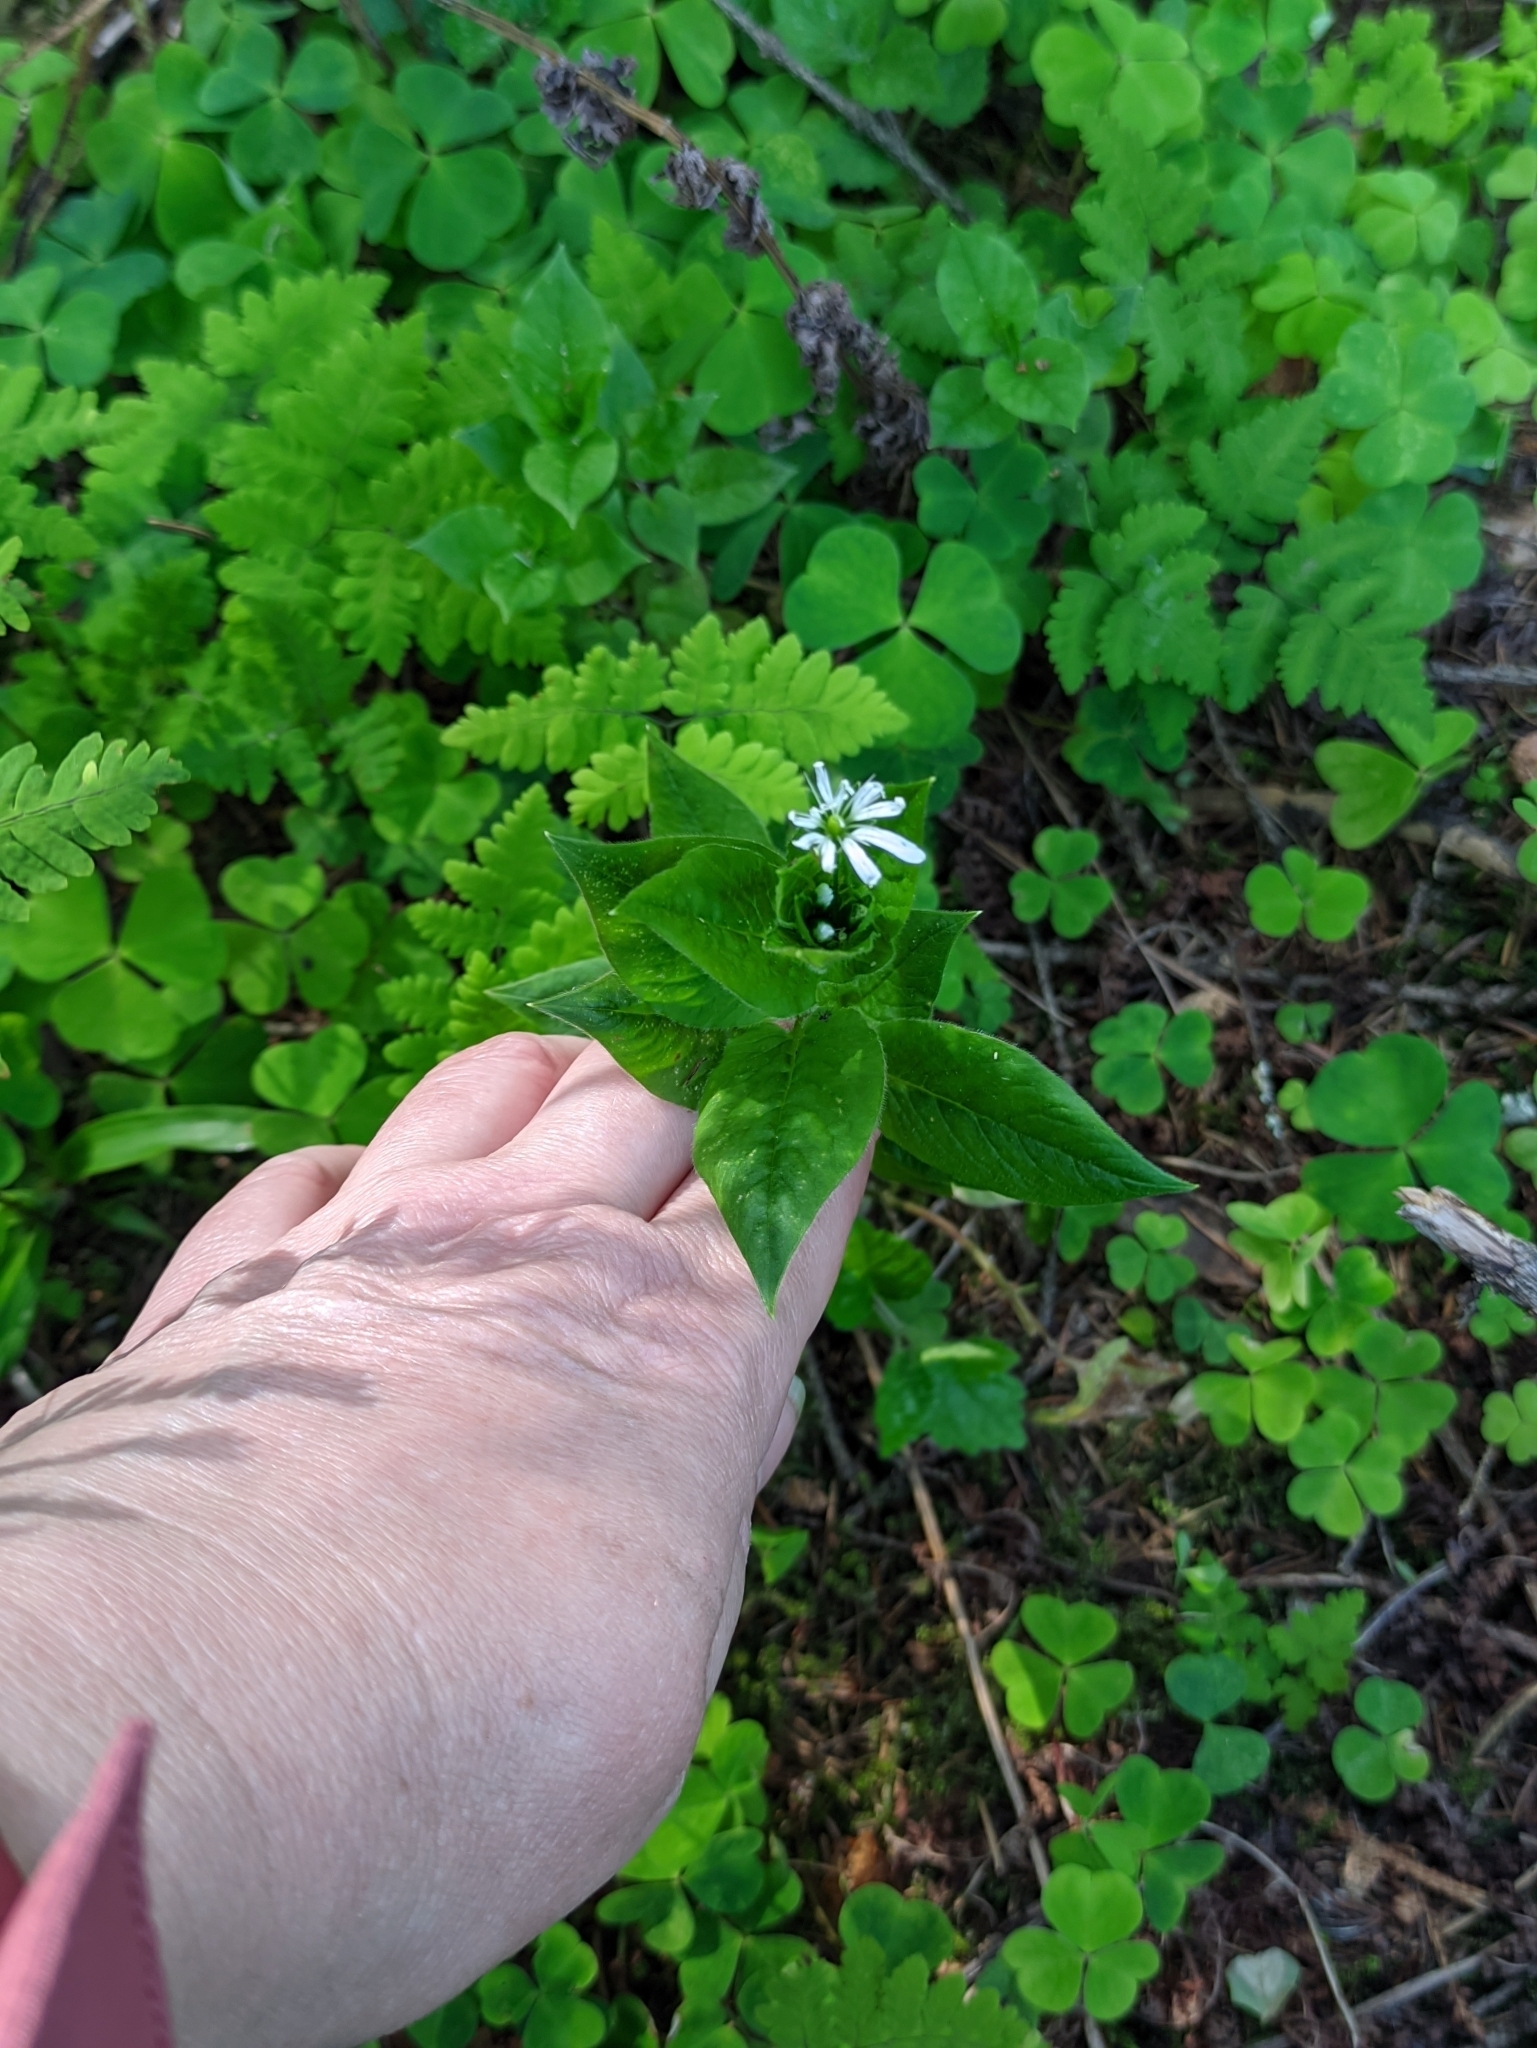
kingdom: Plantae
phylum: Tracheophyta
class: Magnoliopsida
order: Caryophyllales
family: Caryophyllaceae
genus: Stellaria
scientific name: Stellaria nemorum
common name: Wood stitchwort
